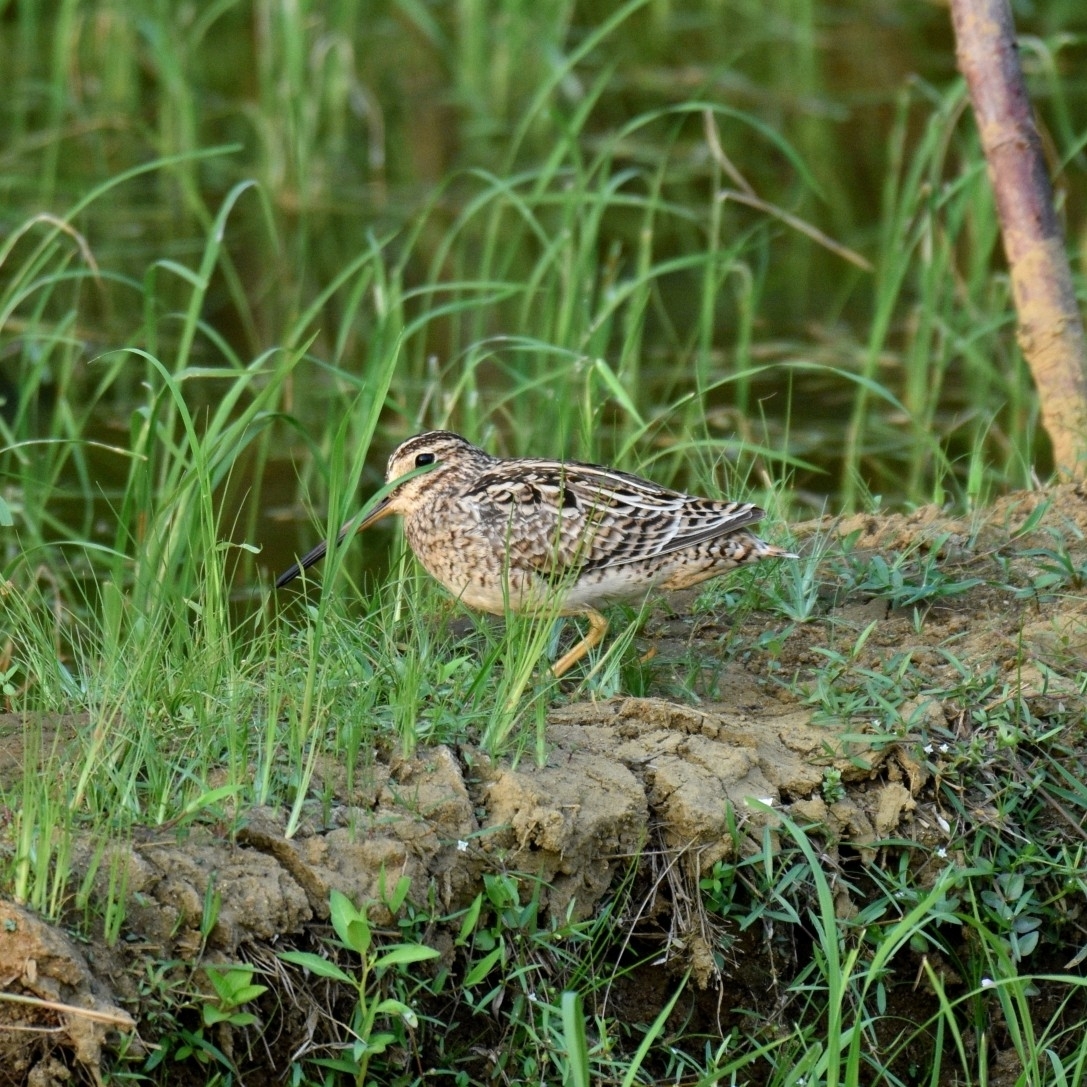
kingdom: Animalia
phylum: Chordata
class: Aves
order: Charadriiformes
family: Scolopacidae
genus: Gallinago
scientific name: Gallinago stenura
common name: Pin-tailed snipe
